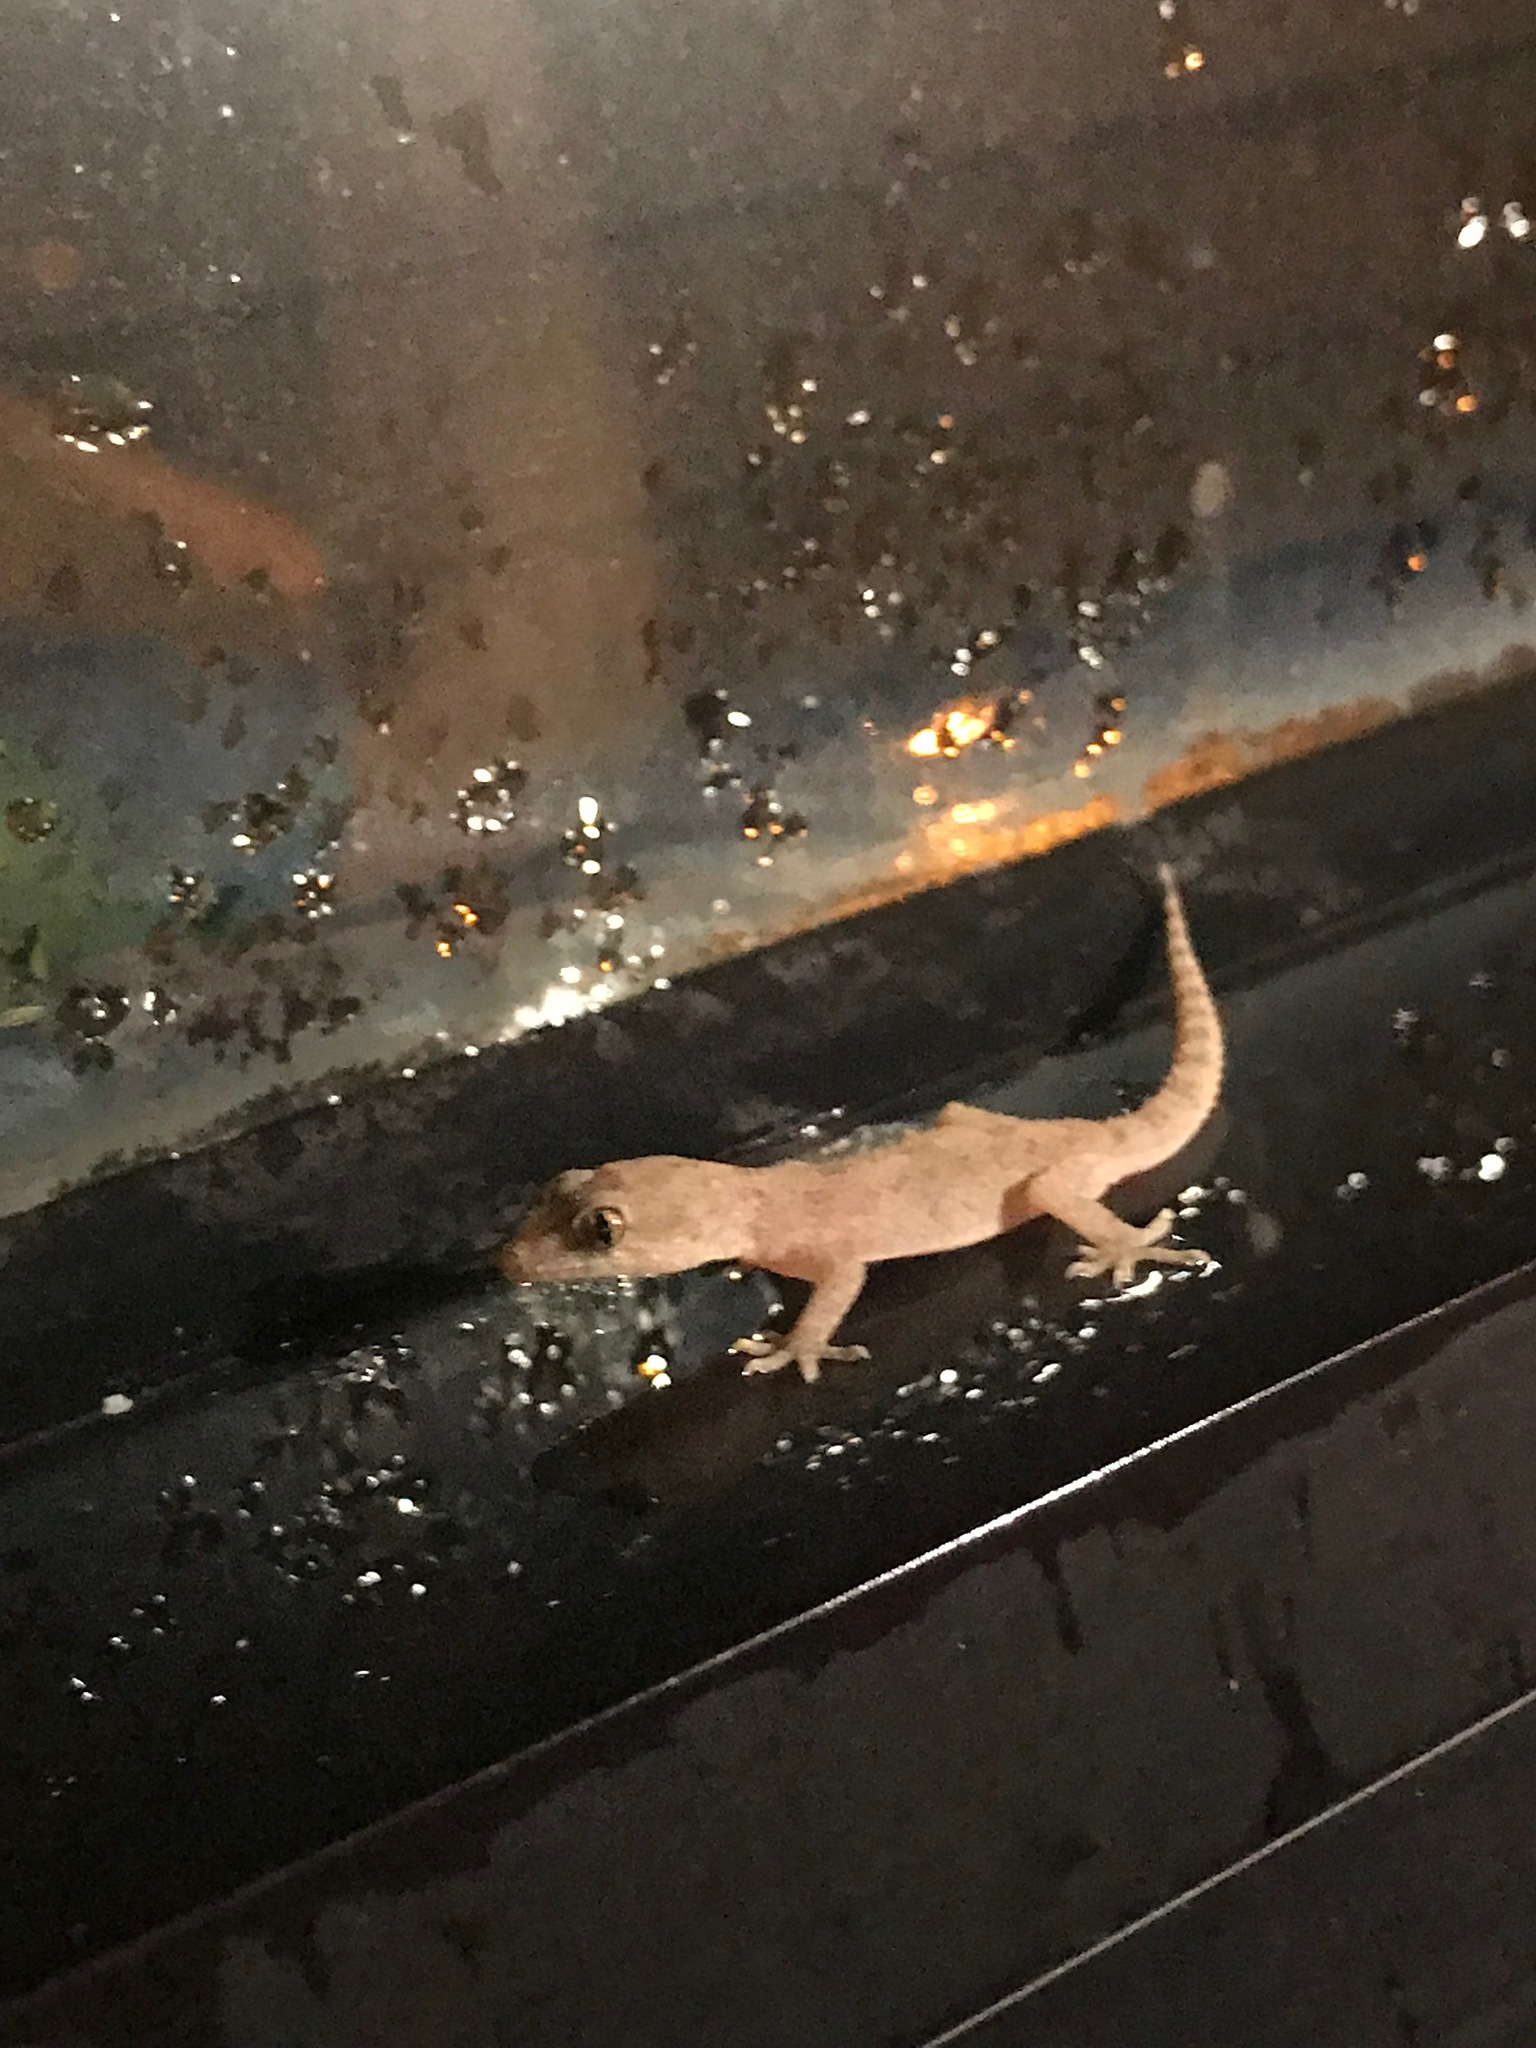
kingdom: Animalia
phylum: Chordata
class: Squamata
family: Gekkonidae
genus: Hemidactylus
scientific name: Hemidactylus turcicus
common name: Turkish gecko
